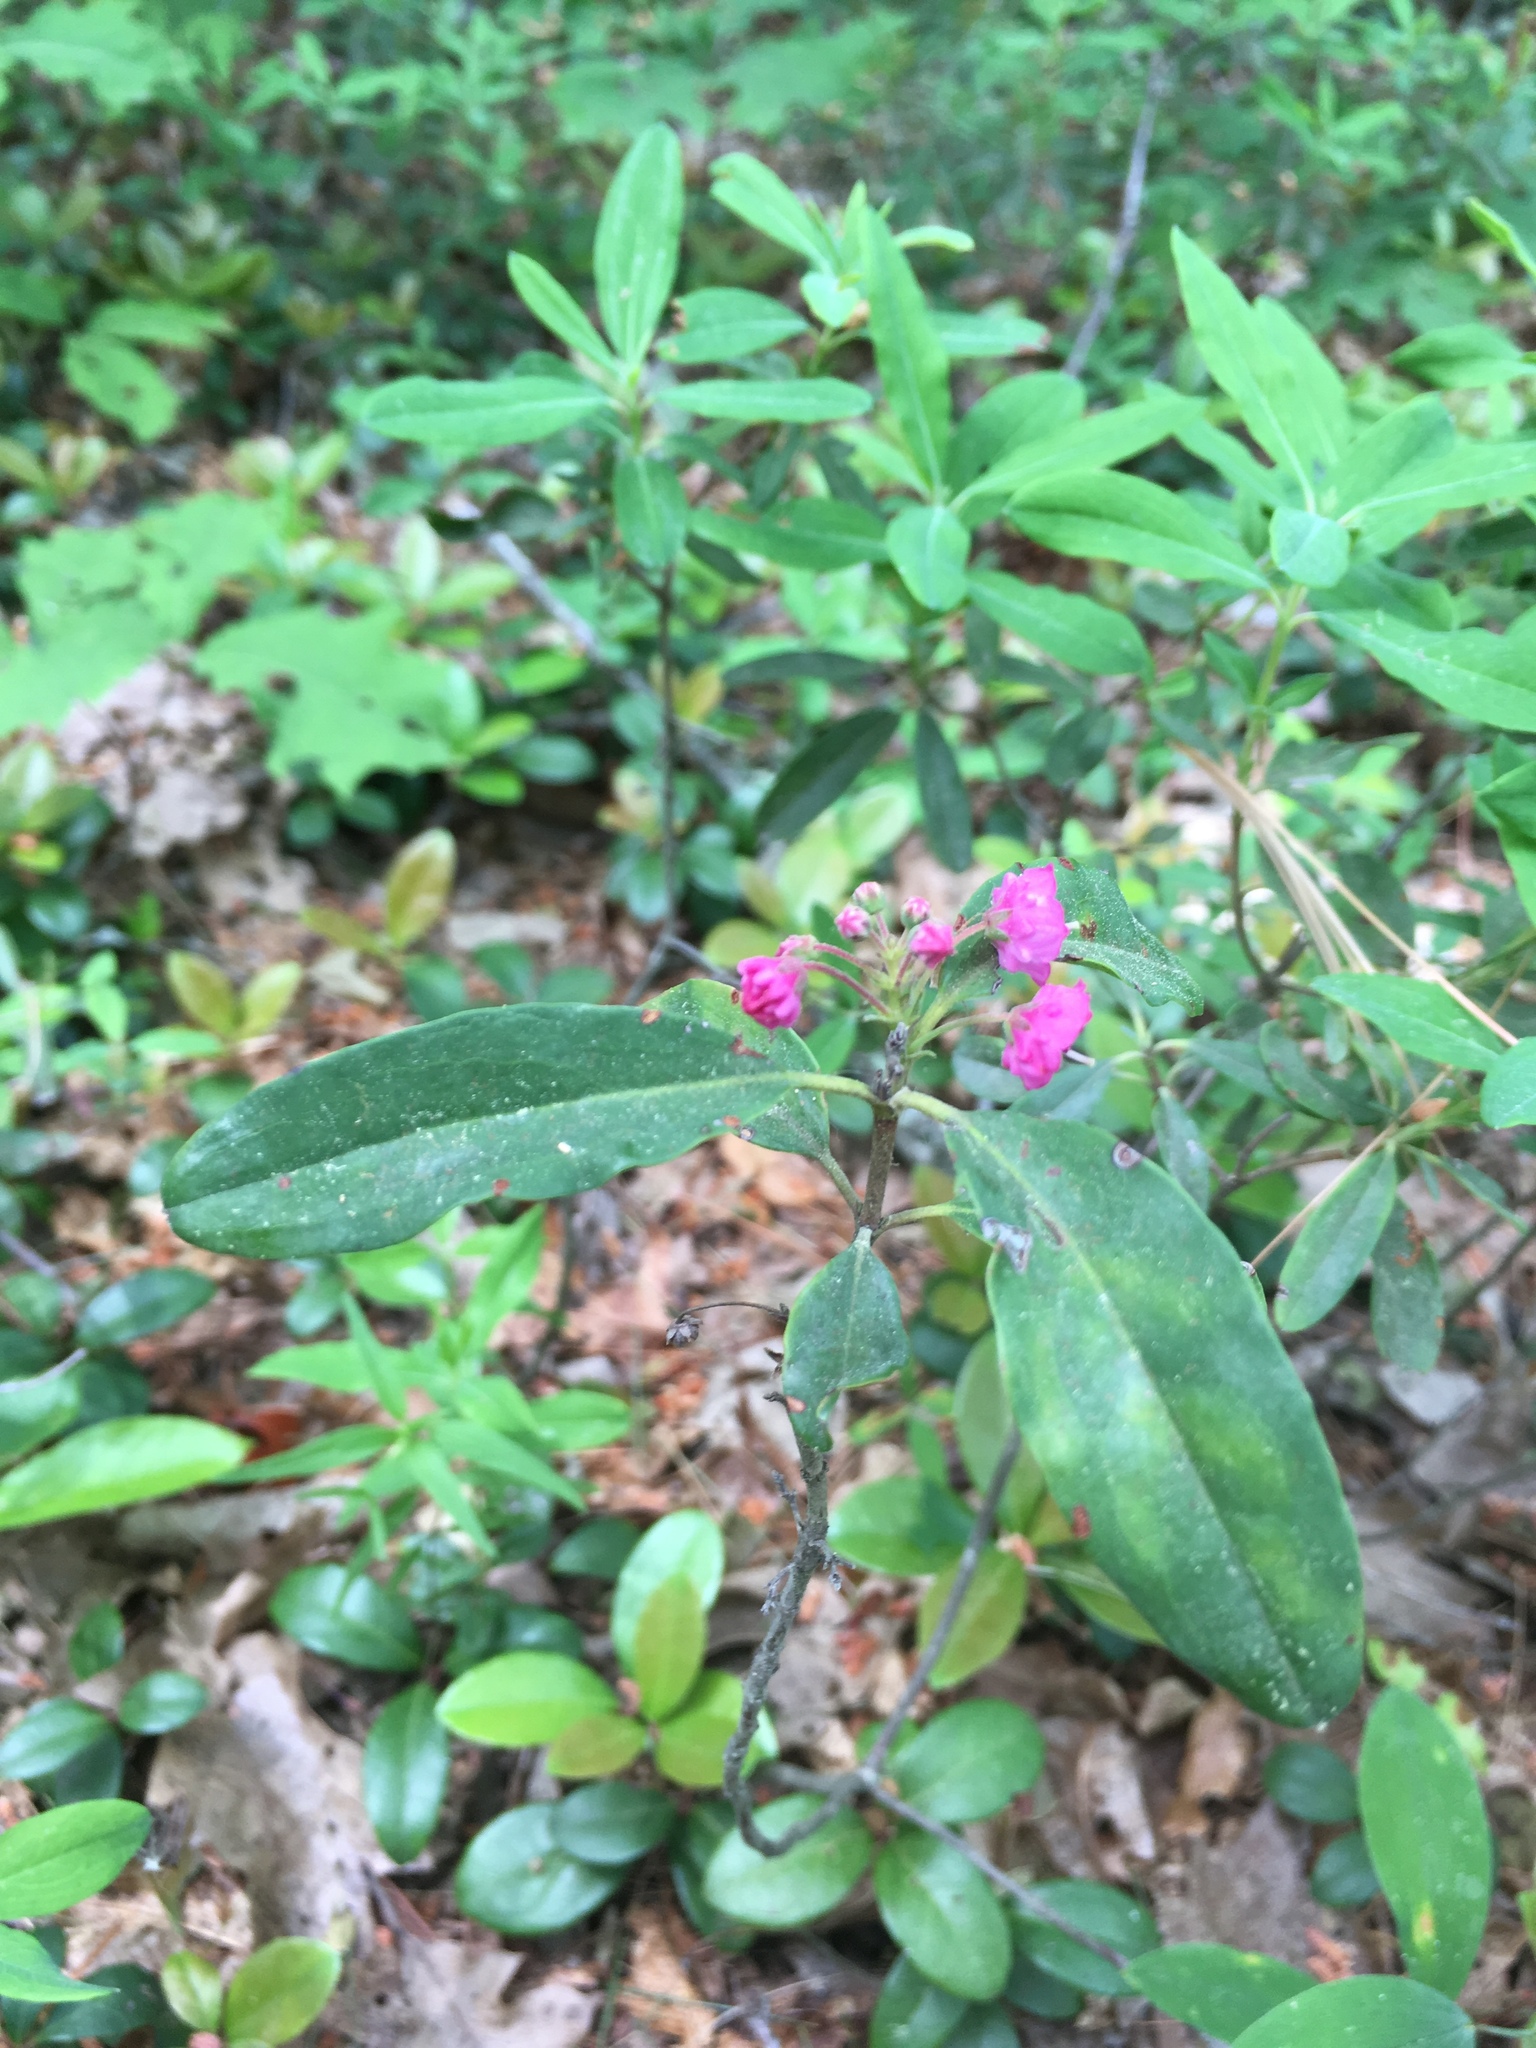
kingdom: Plantae
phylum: Tracheophyta
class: Magnoliopsida
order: Ericales
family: Ericaceae
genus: Kalmia
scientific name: Kalmia angustifolia
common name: Sheep-laurel
